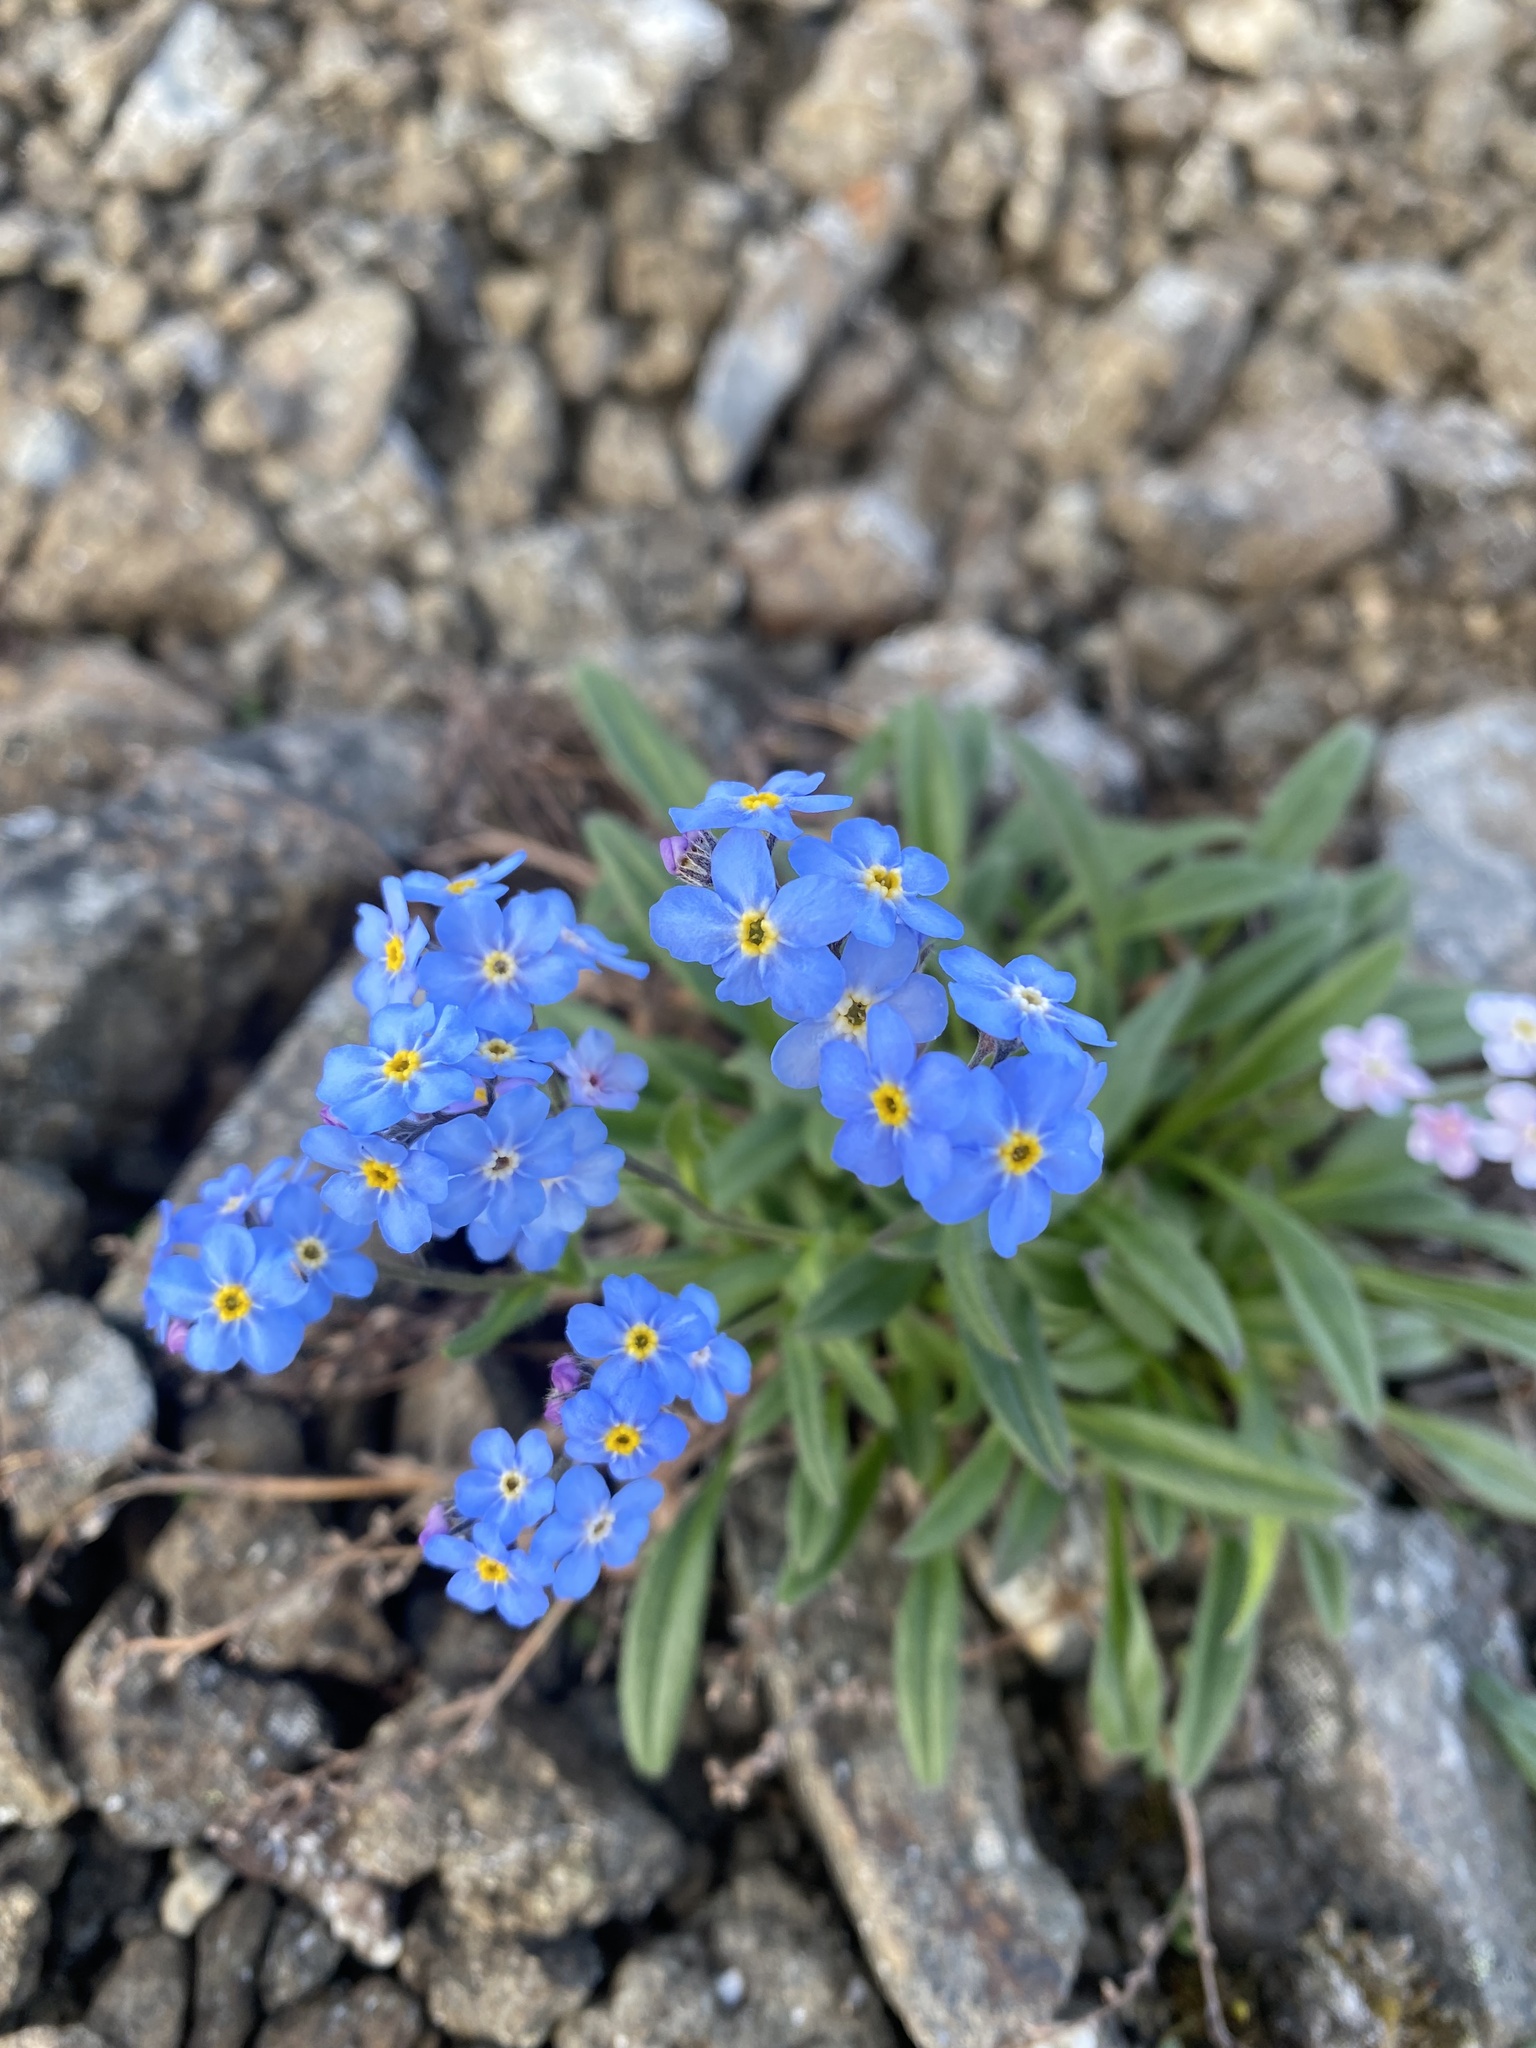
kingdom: Plantae
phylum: Tracheophyta
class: Magnoliopsida
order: Boraginales
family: Boraginaceae
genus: Myosotis
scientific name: Myosotis asiatica
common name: Asian forget-me-not
